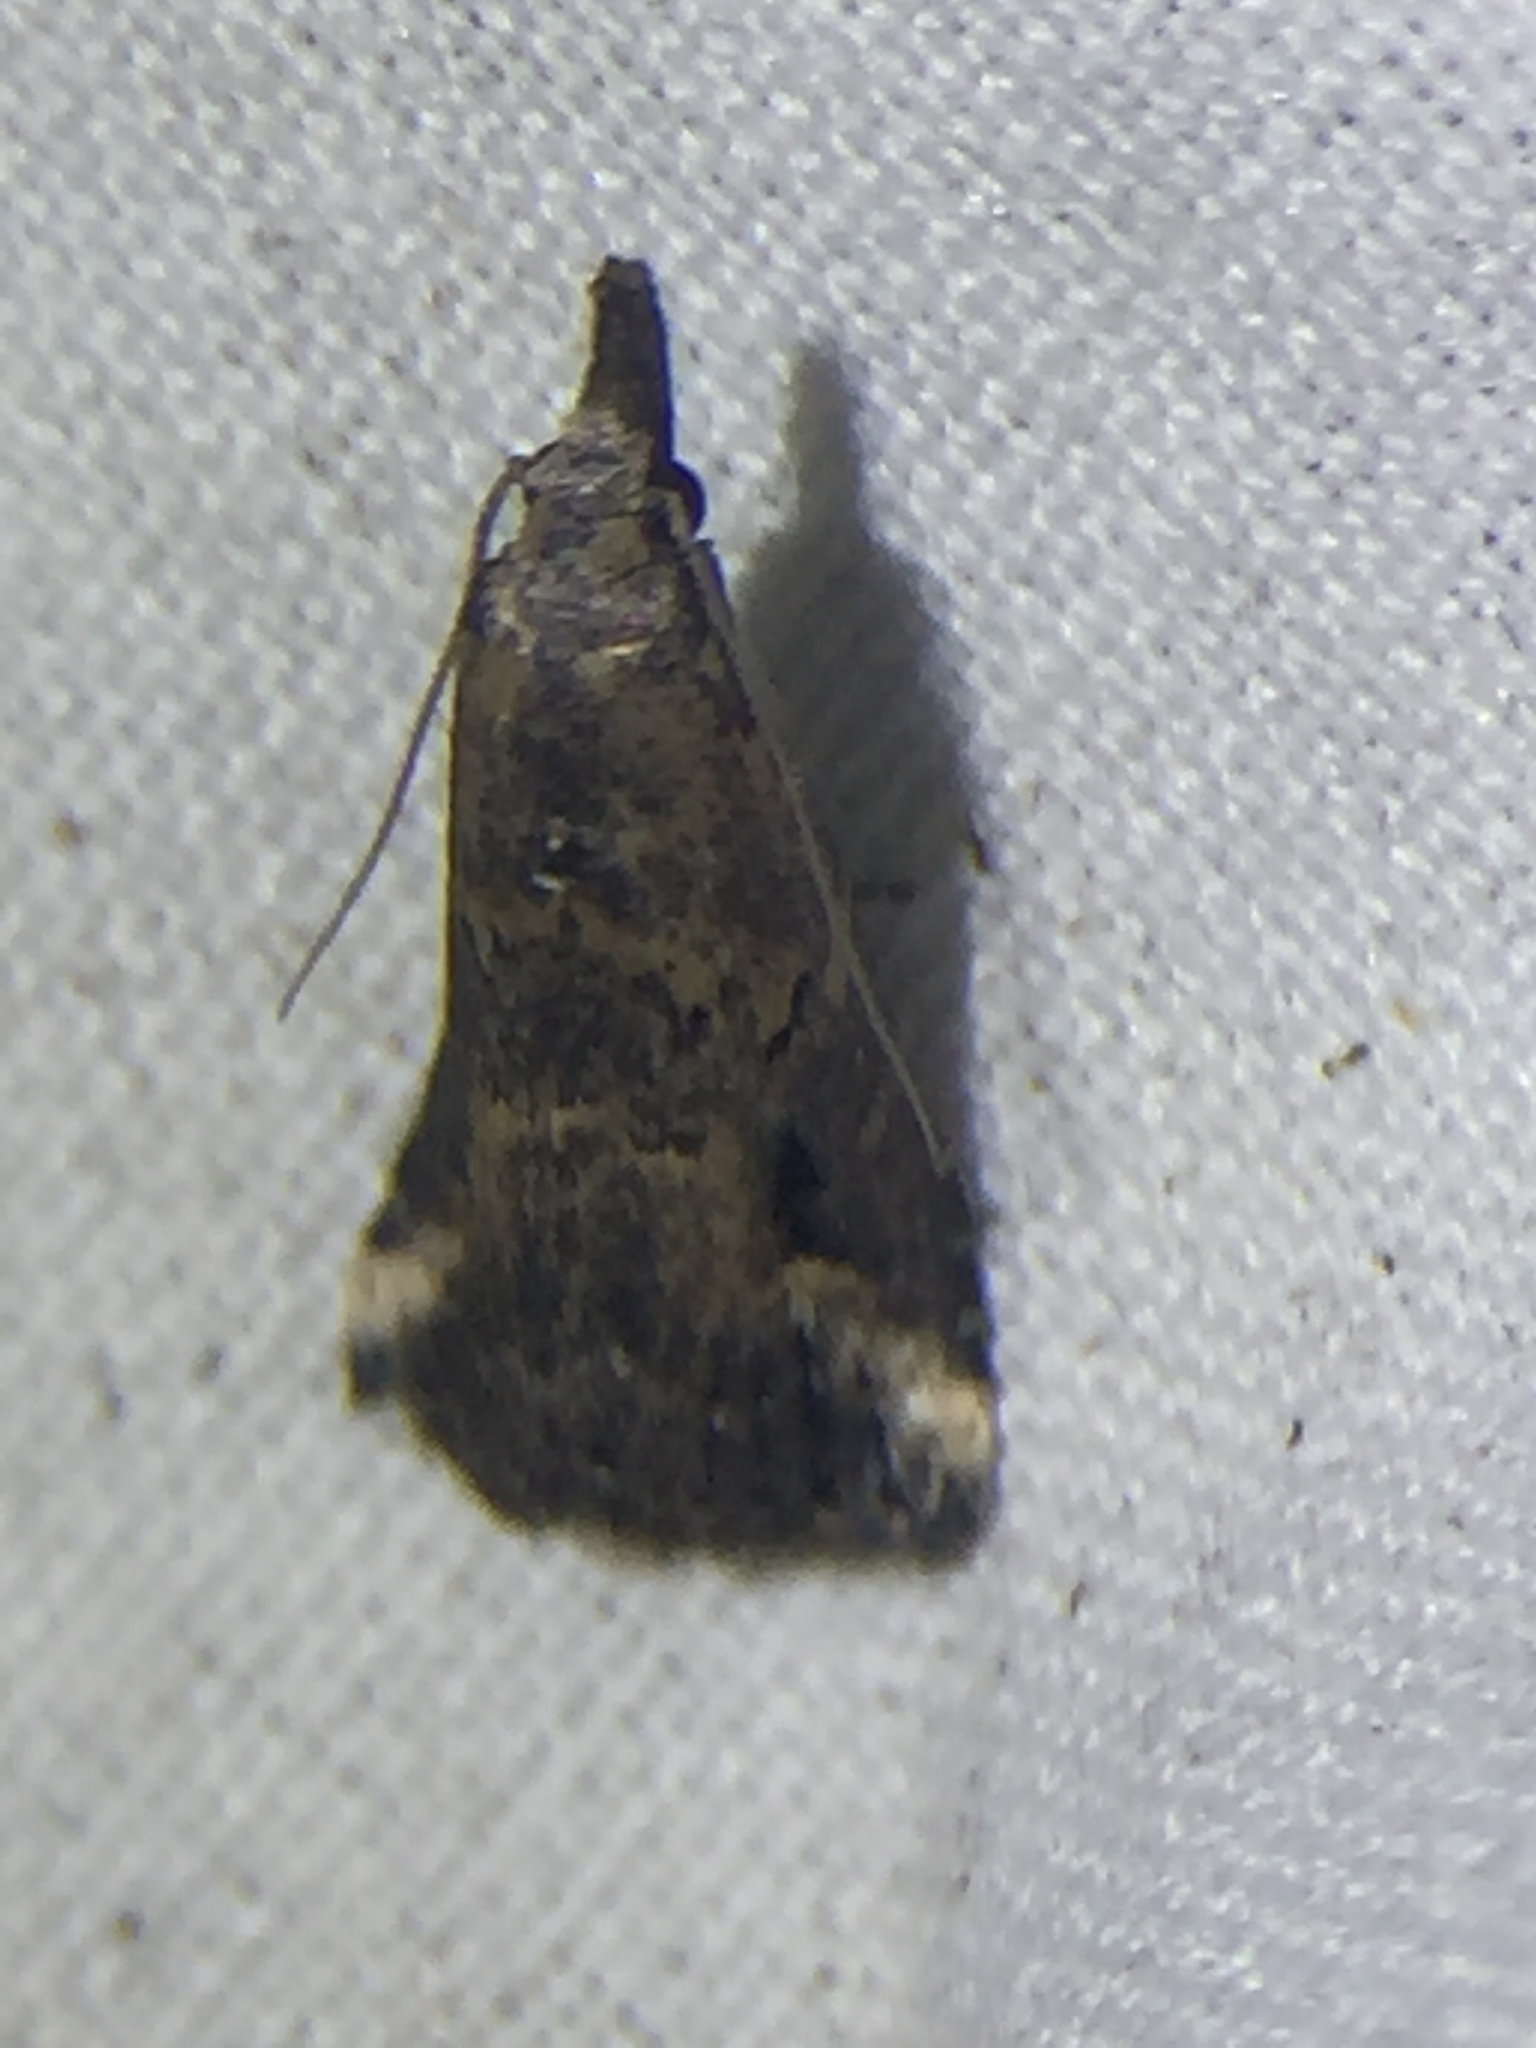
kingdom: Animalia
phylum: Arthropoda
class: Insecta
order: Lepidoptera
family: Erebidae
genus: Schrankia
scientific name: Schrankia costaestrigalis
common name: Pinion-streaked snout
